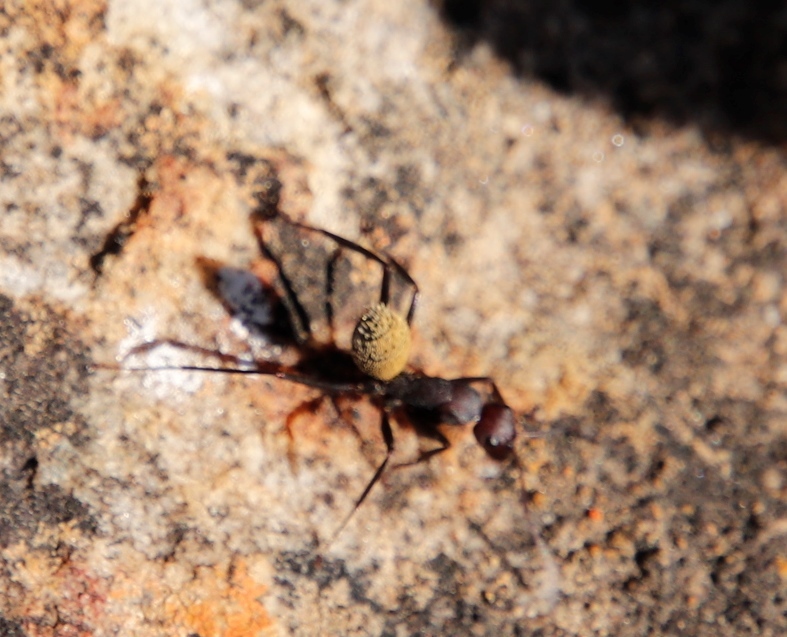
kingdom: Animalia
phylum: Arthropoda
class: Insecta
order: Hymenoptera
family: Formicidae
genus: Camponotus
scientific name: Camponotus storeatus
